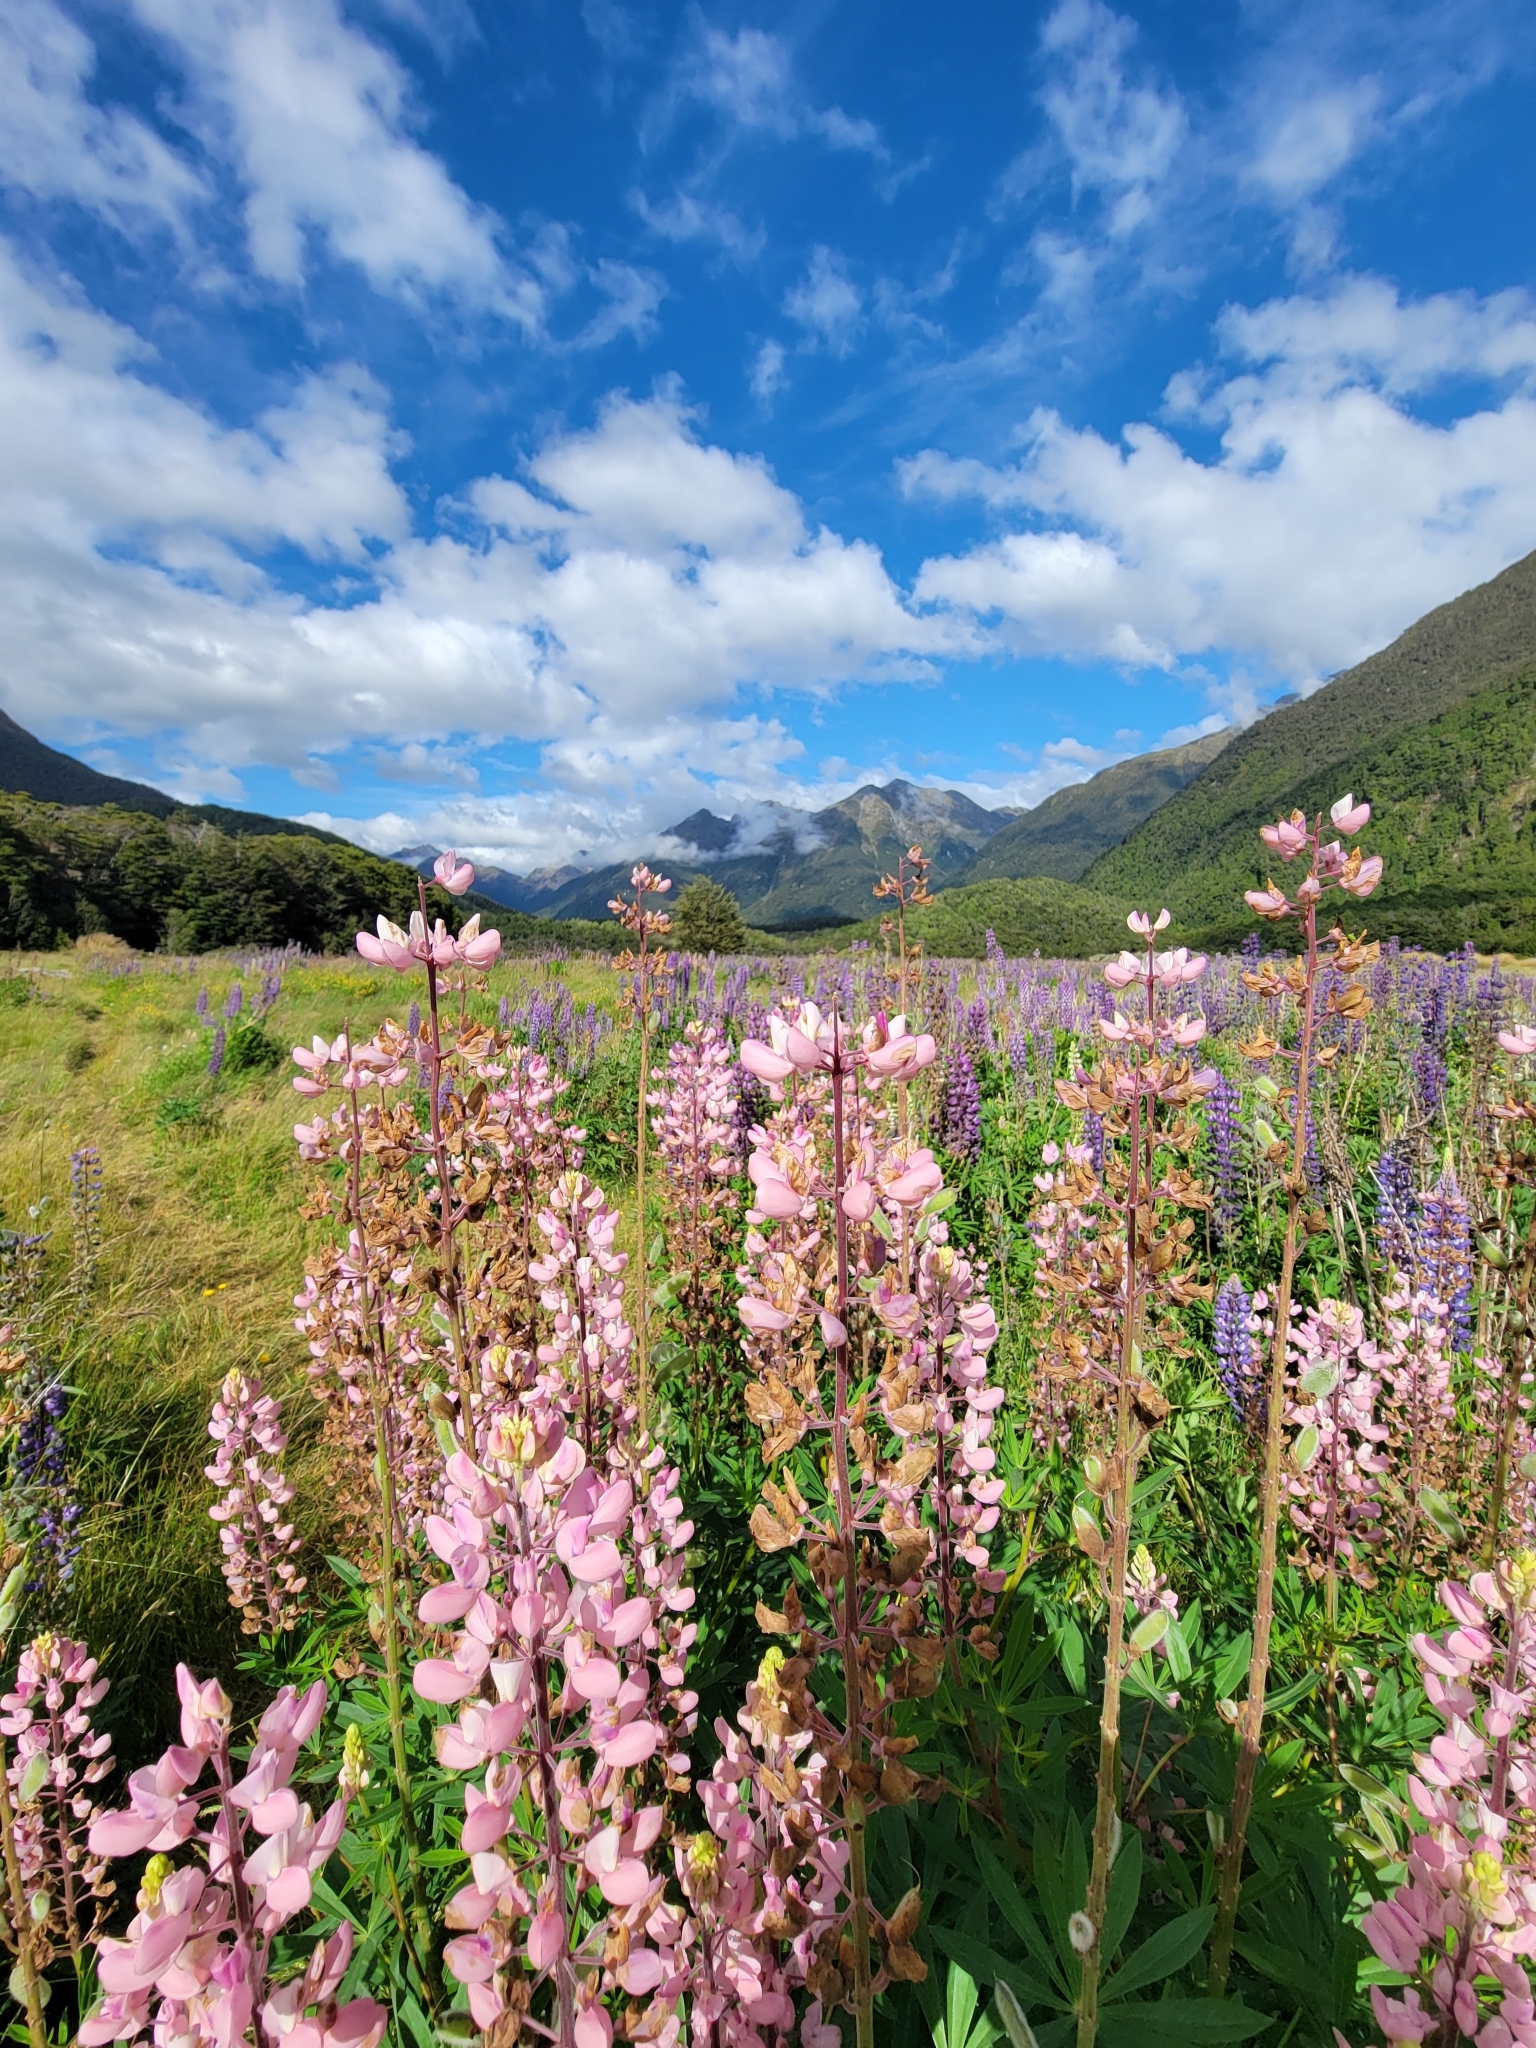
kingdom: Plantae
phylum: Tracheophyta
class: Magnoliopsida
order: Fabales
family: Fabaceae
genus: Lupinus
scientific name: Lupinus polyphyllus
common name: Garden lupin
